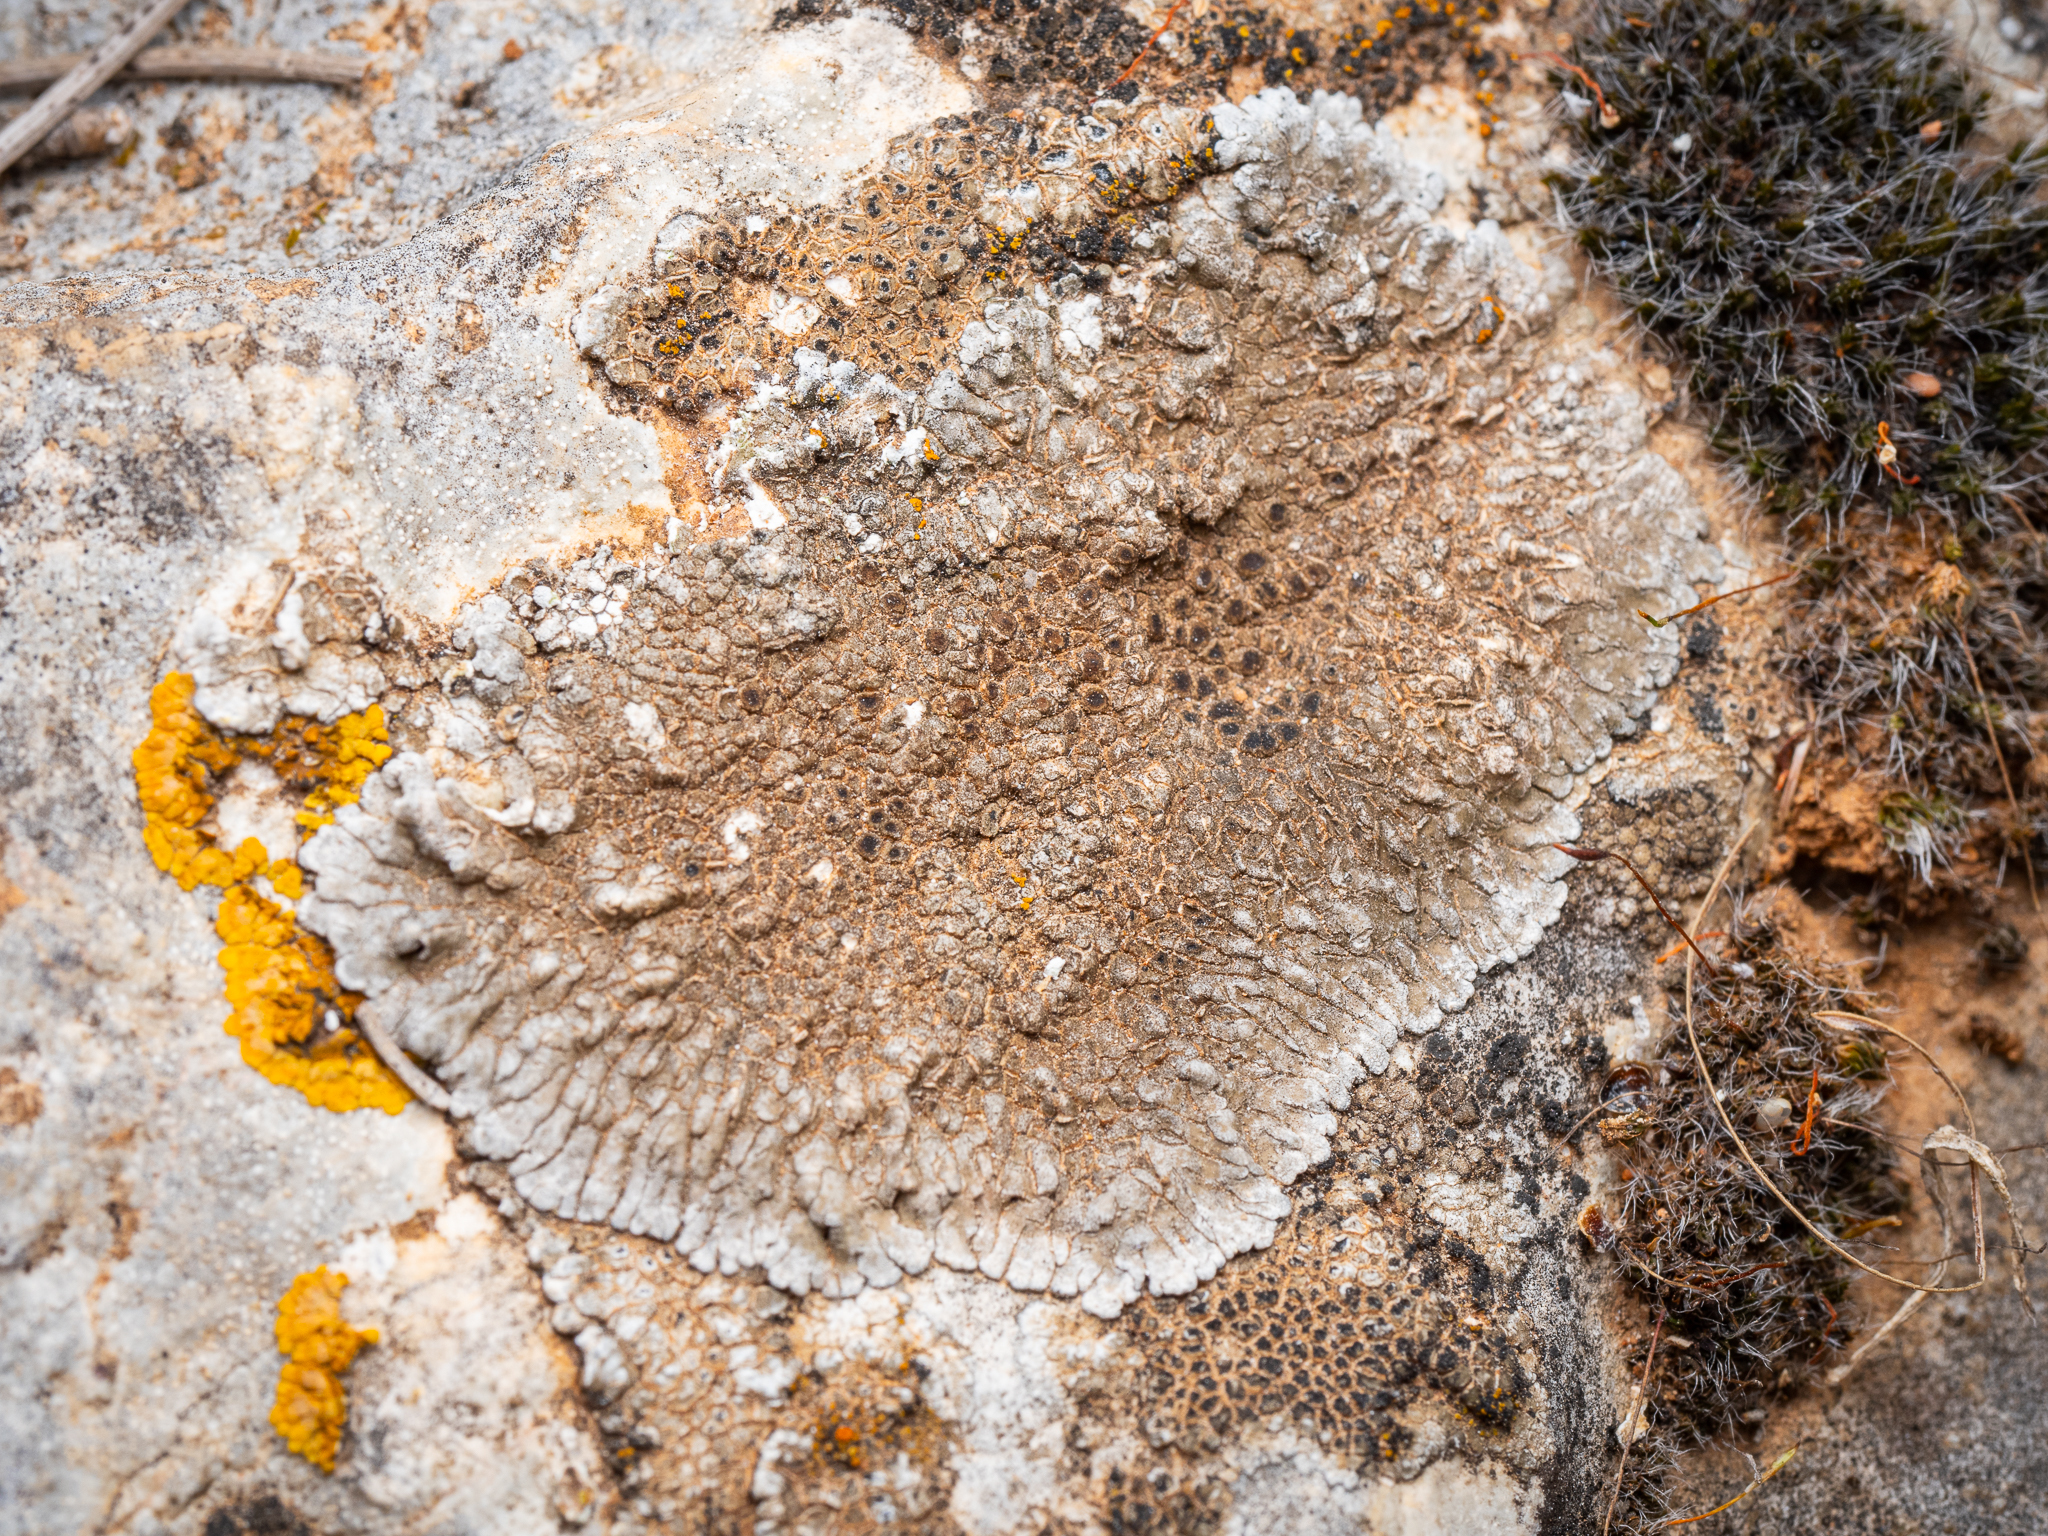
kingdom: Fungi
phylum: Ascomycota
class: Lecanoromycetes
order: Pertusariales
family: Megasporaceae
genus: Lobothallia
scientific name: Lobothallia radiosa
